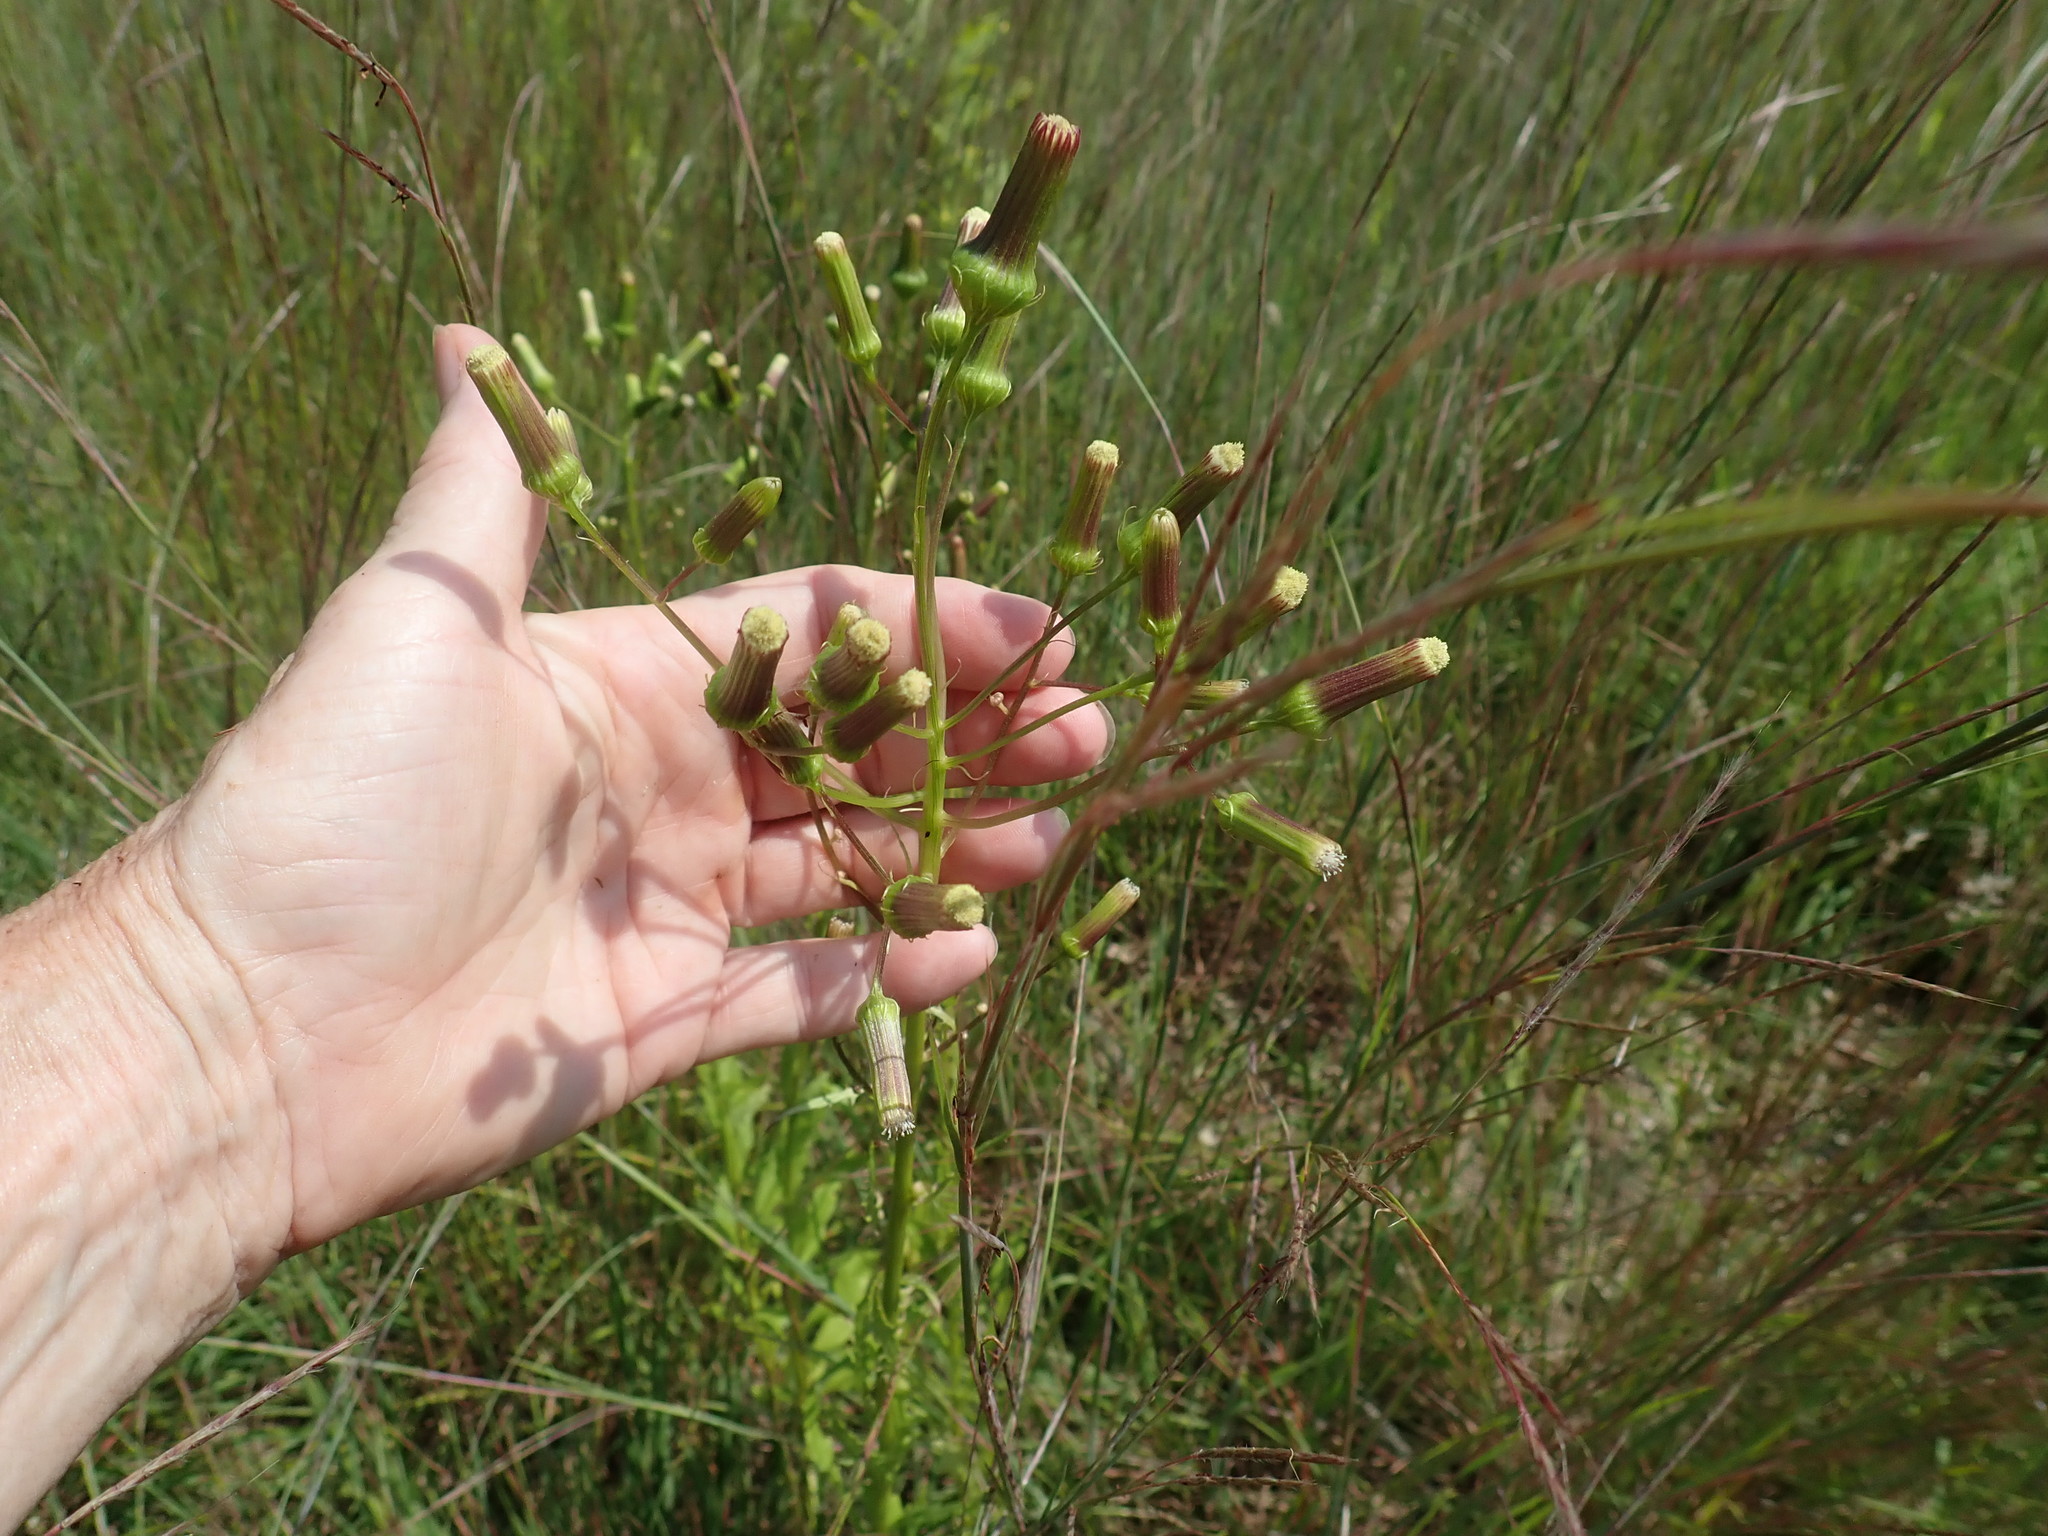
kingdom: Plantae
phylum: Tracheophyta
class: Magnoliopsida
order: Asterales
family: Asteraceae
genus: Erechtites
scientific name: Erechtites hieraciifolius
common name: American burnweed
